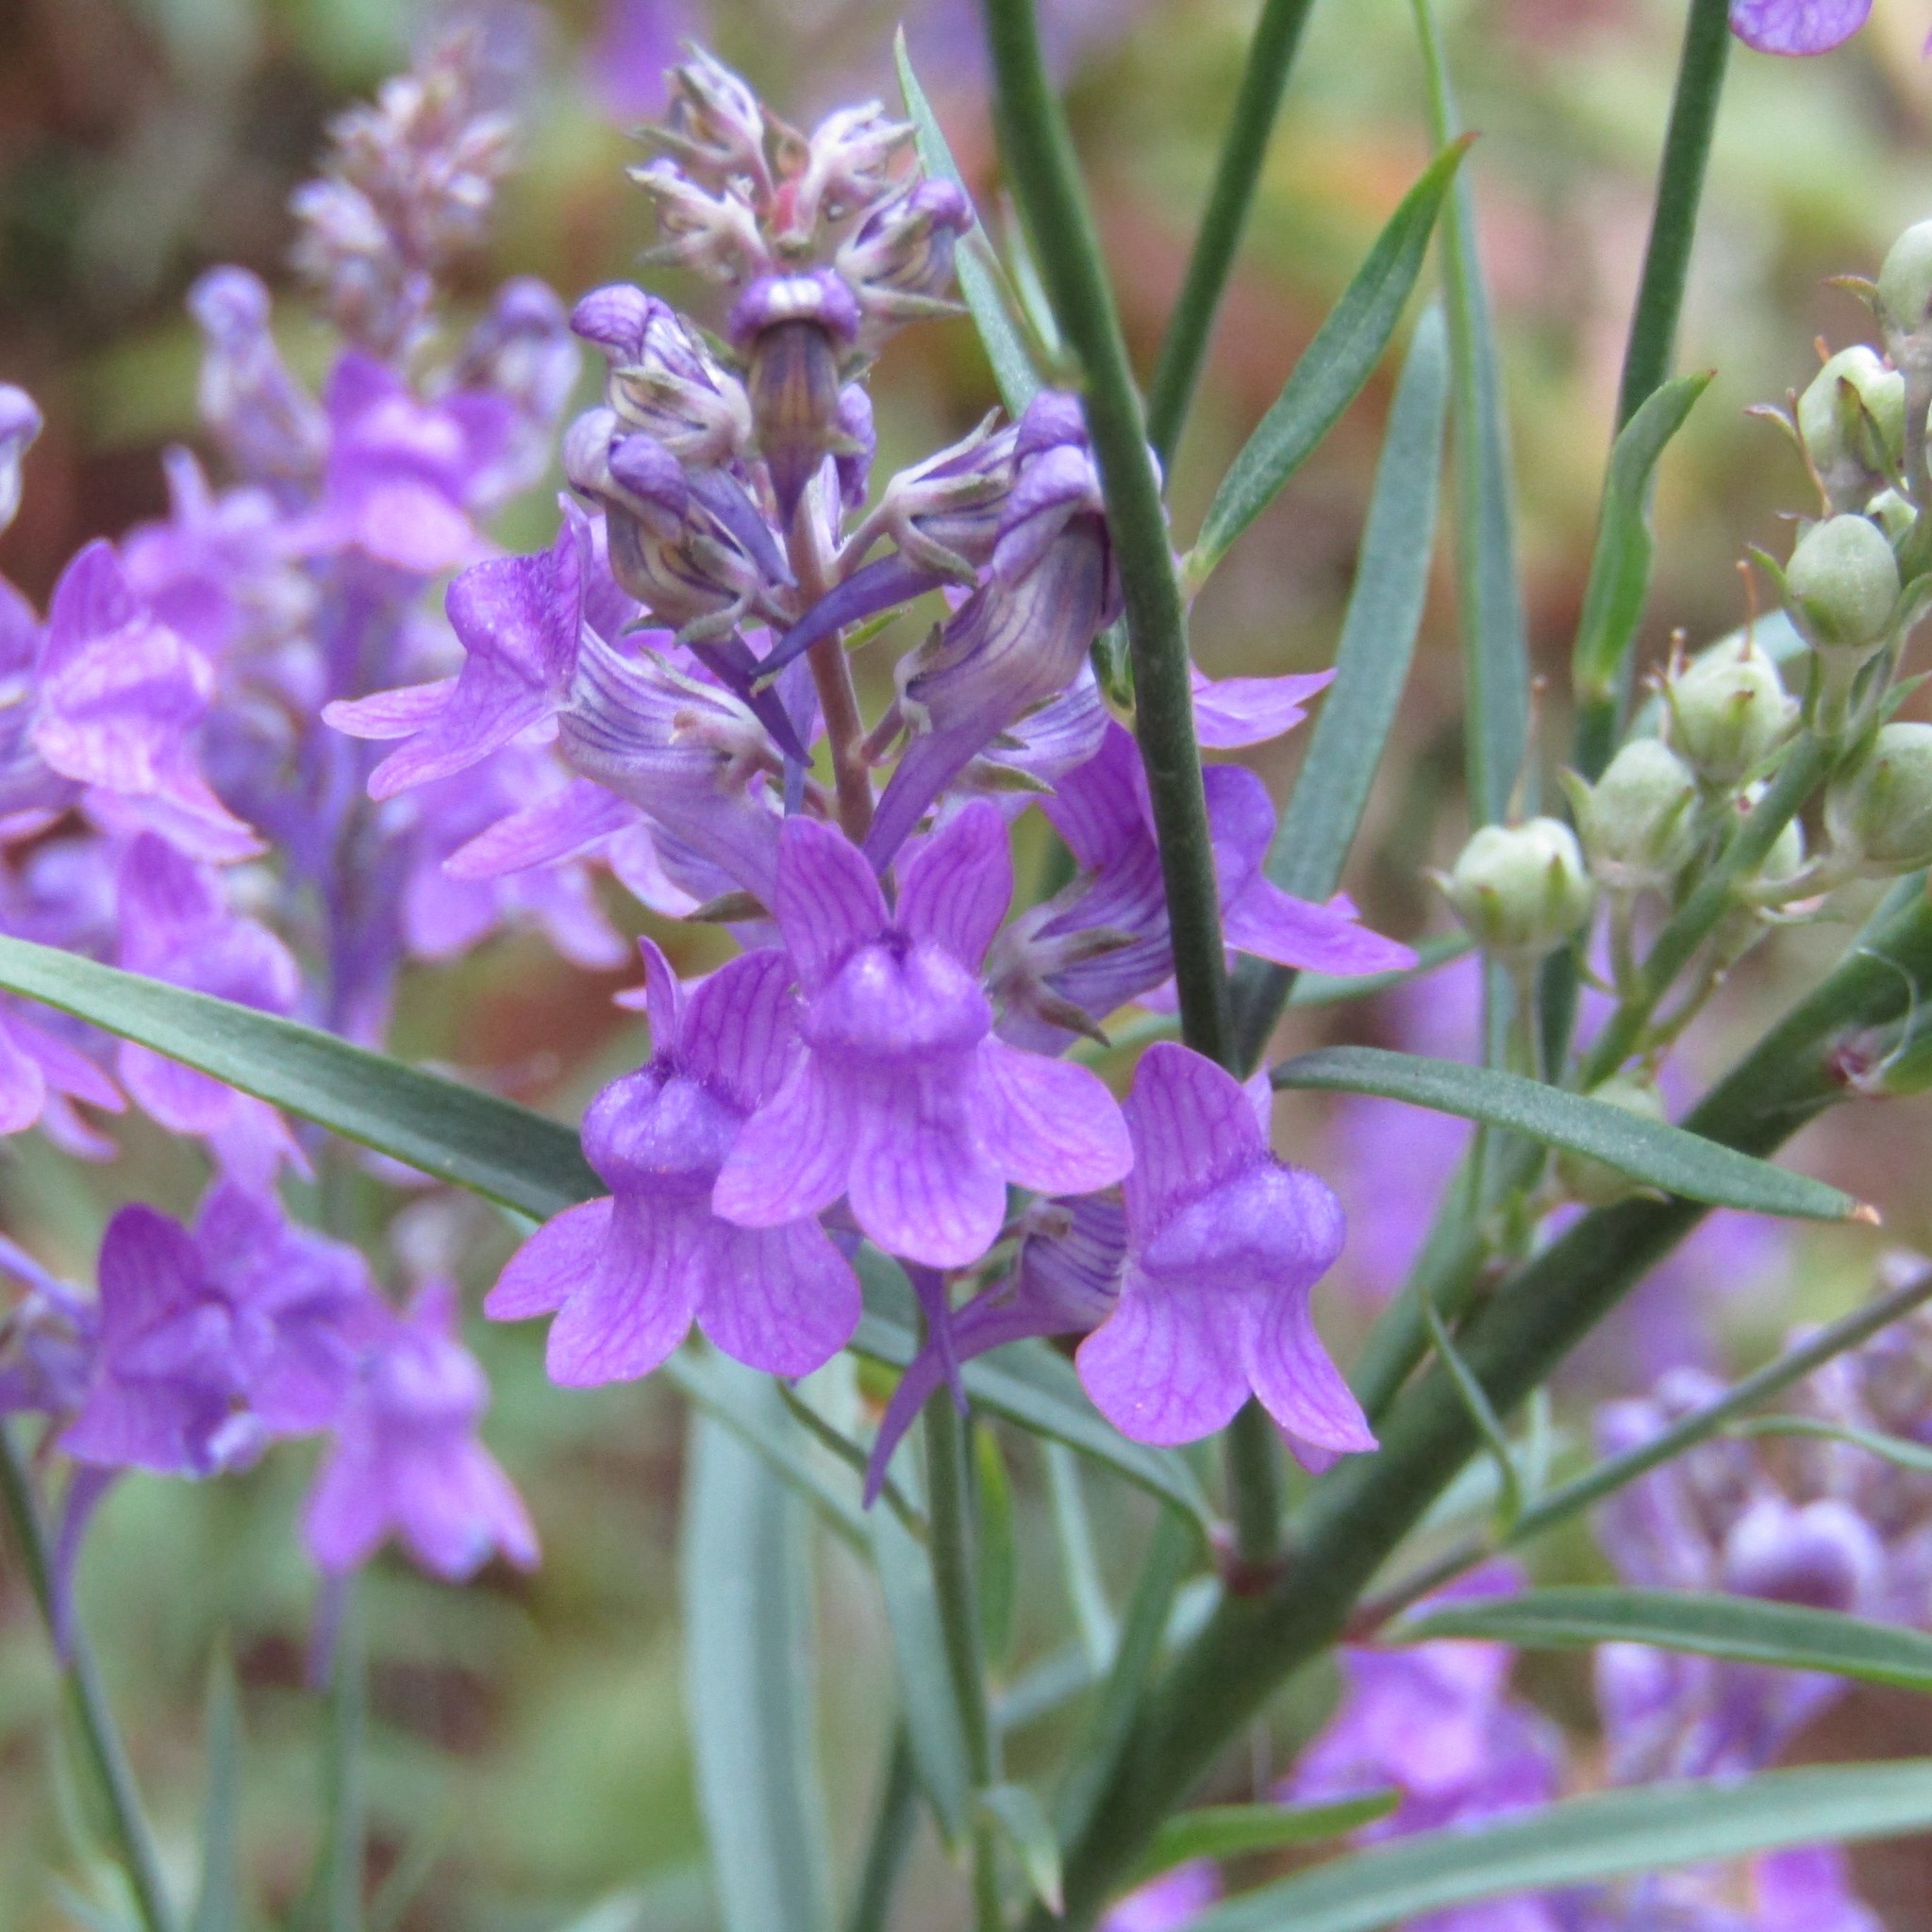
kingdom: Plantae
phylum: Tracheophyta
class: Magnoliopsida
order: Lamiales
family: Plantaginaceae
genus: Linaria
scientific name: Linaria purpurea
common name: Purple toadflax
